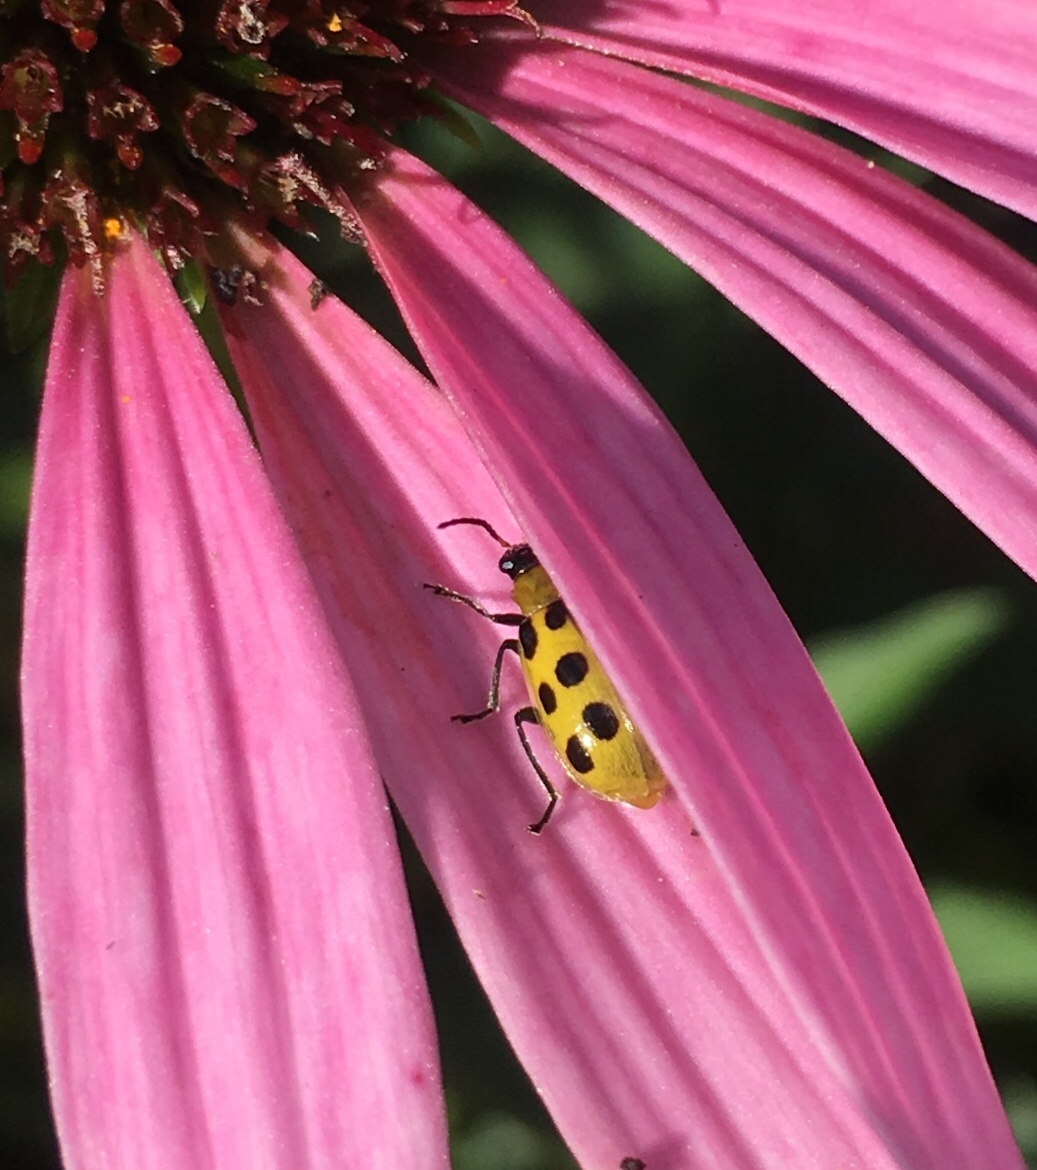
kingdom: Animalia
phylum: Arthropoda
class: Insecta
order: Coleoptera
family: Chrysomelidae
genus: Diabrotica
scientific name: Diabrotica undecimpunctata
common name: Spotted cucumber beetle
